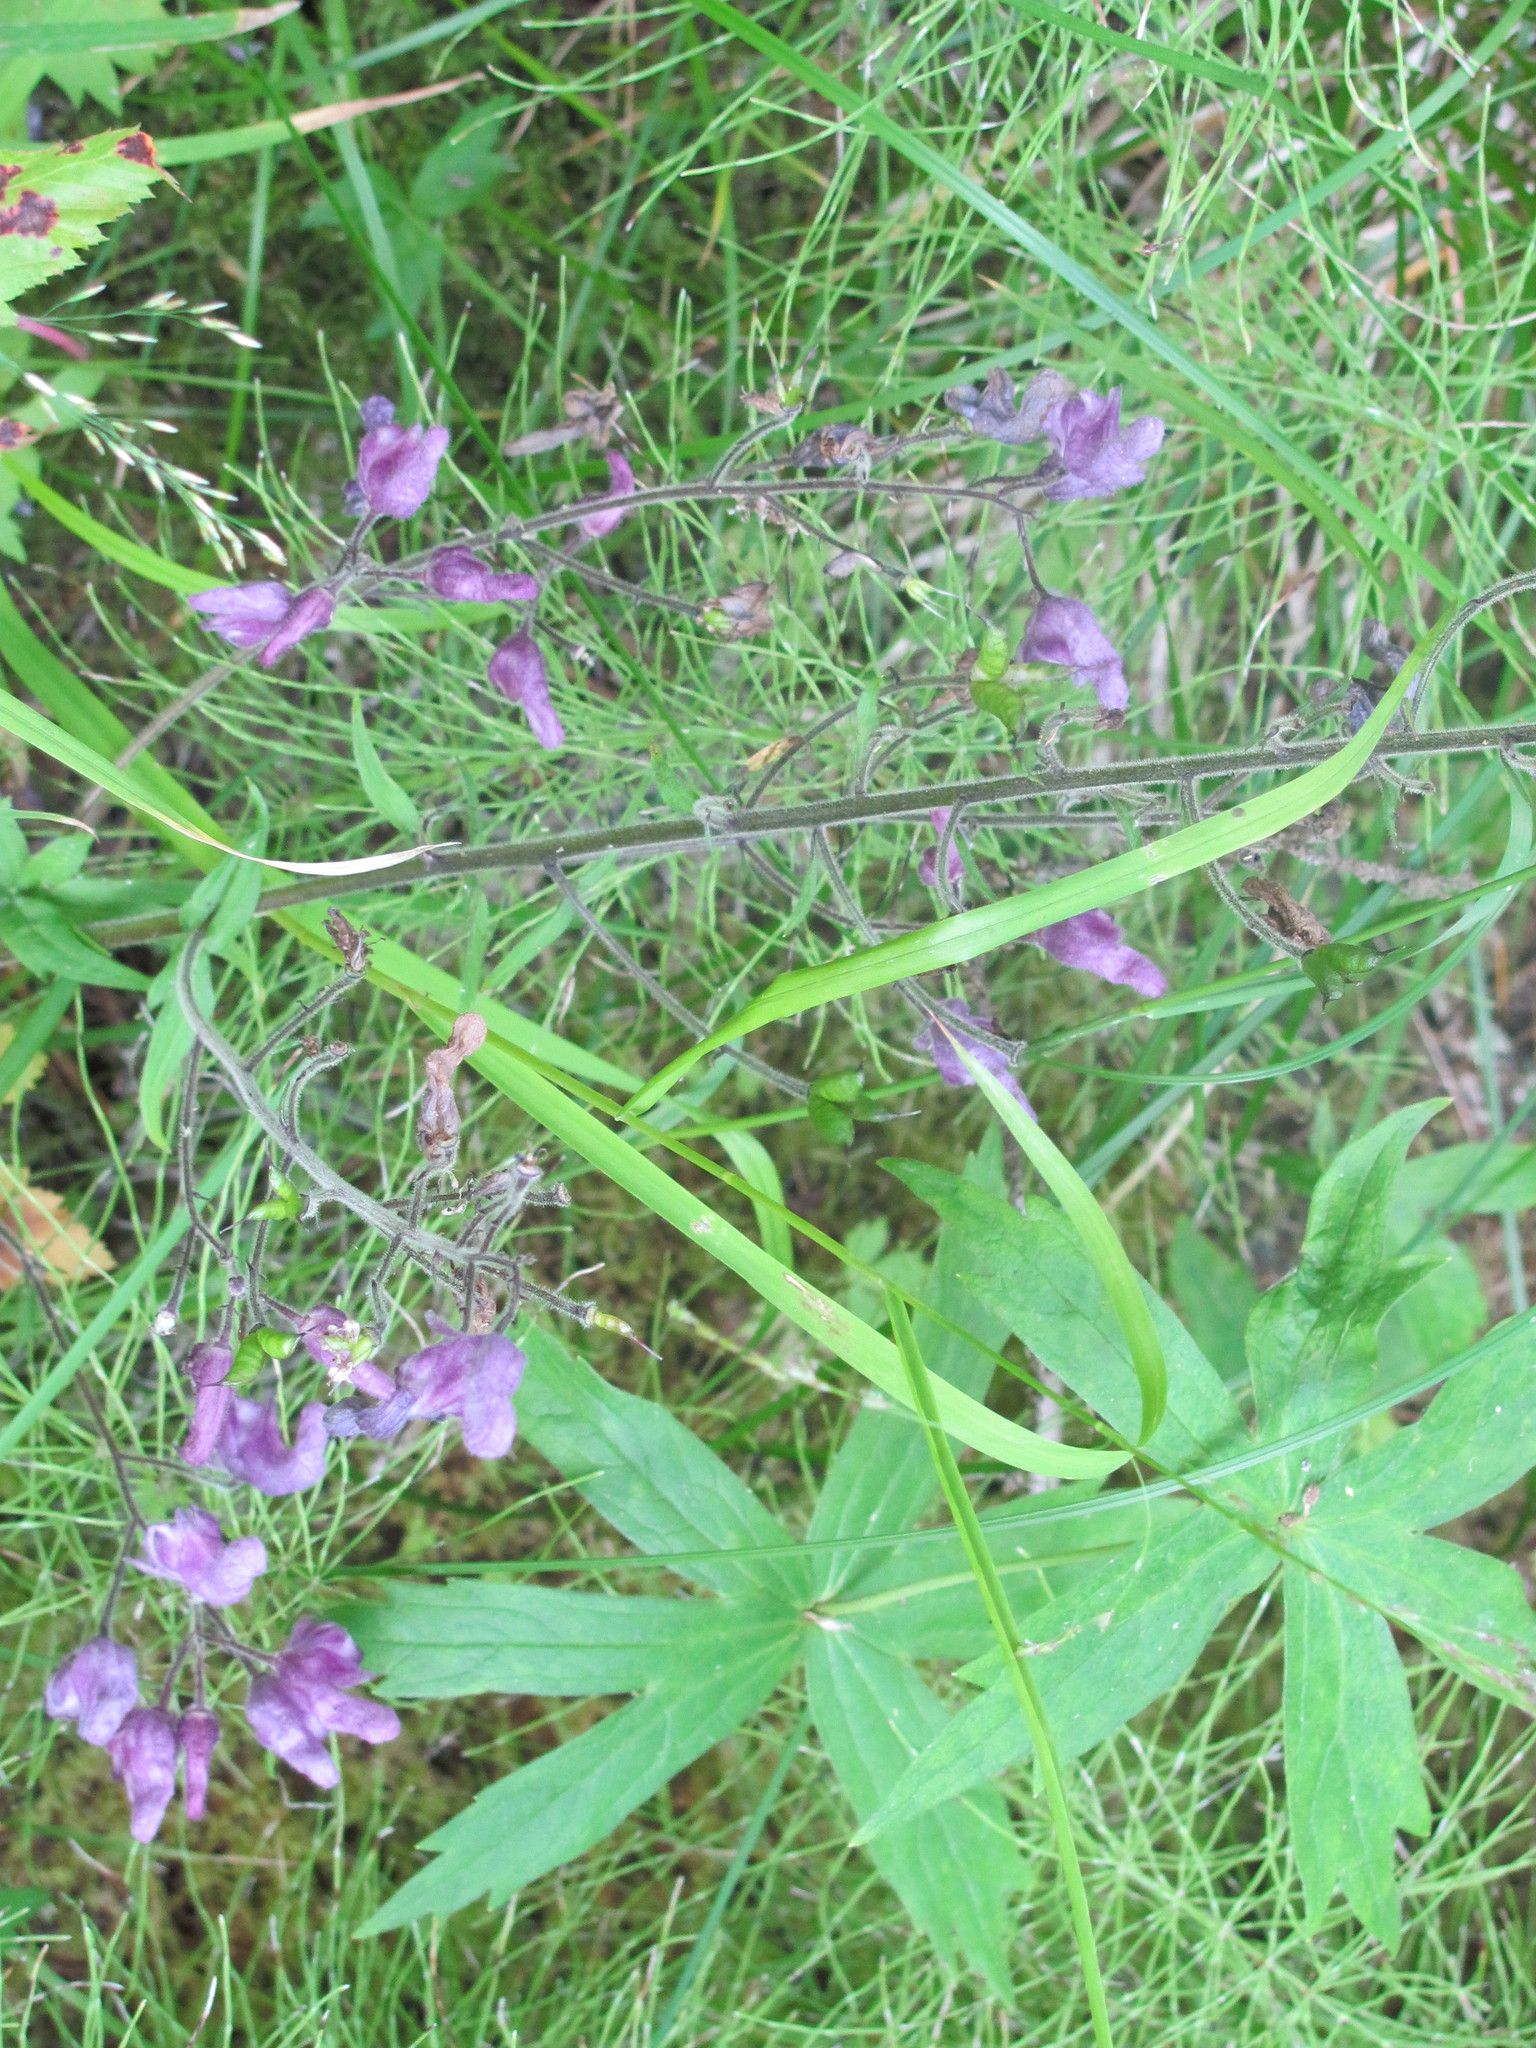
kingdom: Plantae
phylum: Tracheophyta
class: Magnoliopsida
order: Ranunculales
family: Ranunculaceae
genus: Aconitum
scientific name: Aconitum septentrionale
